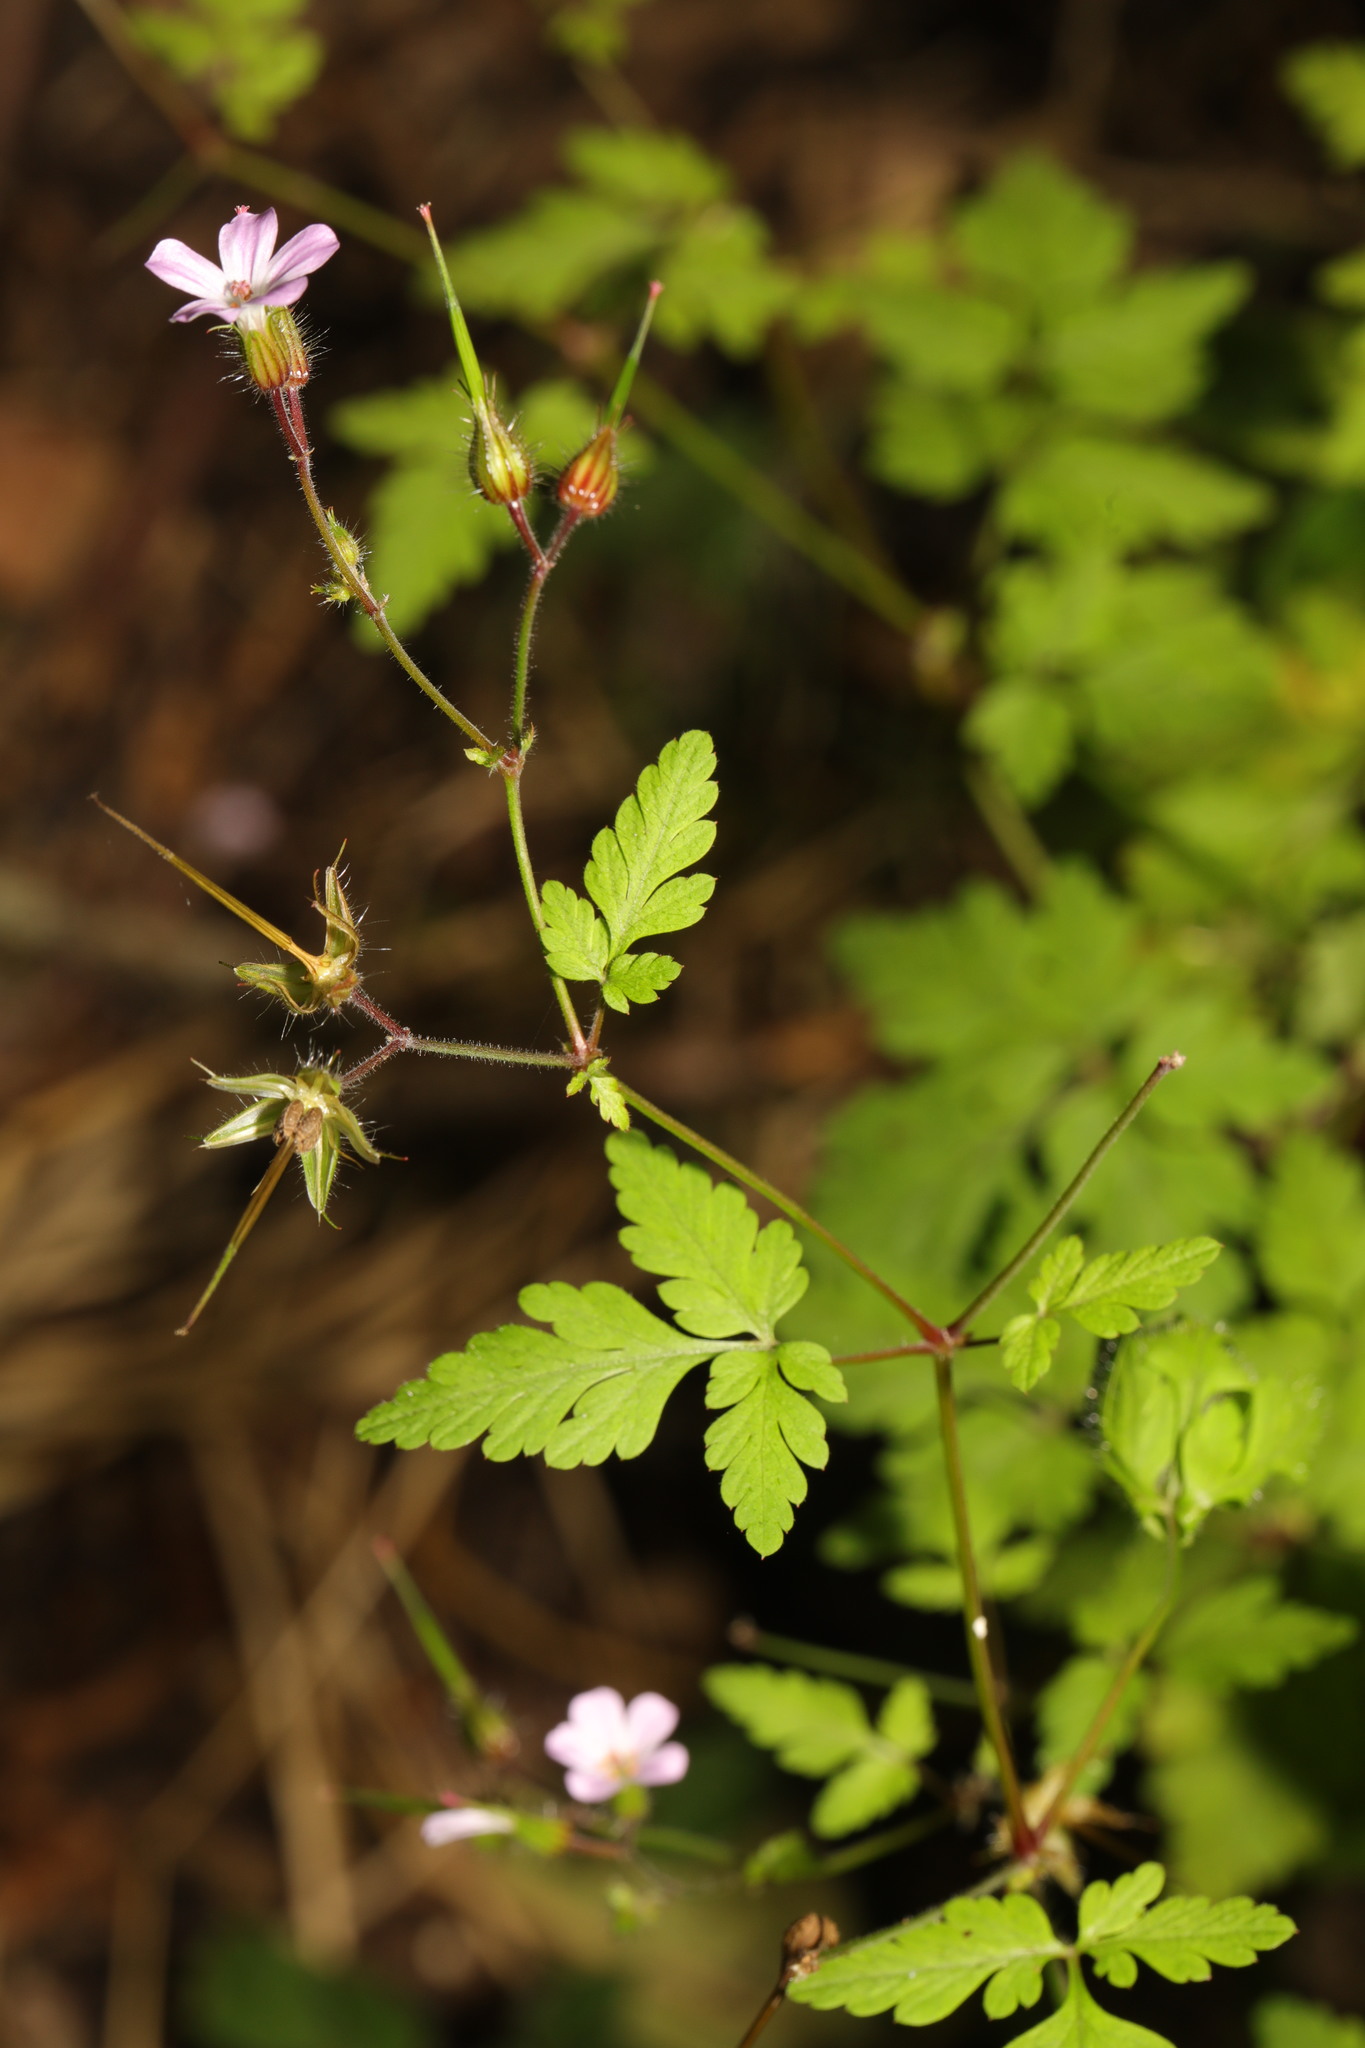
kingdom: Plantae
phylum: Tracheophyta
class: Magnoliopsida
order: Geraniales
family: Geraniaceae
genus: Geranium
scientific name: Geranium robertianum
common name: Herb-robert
